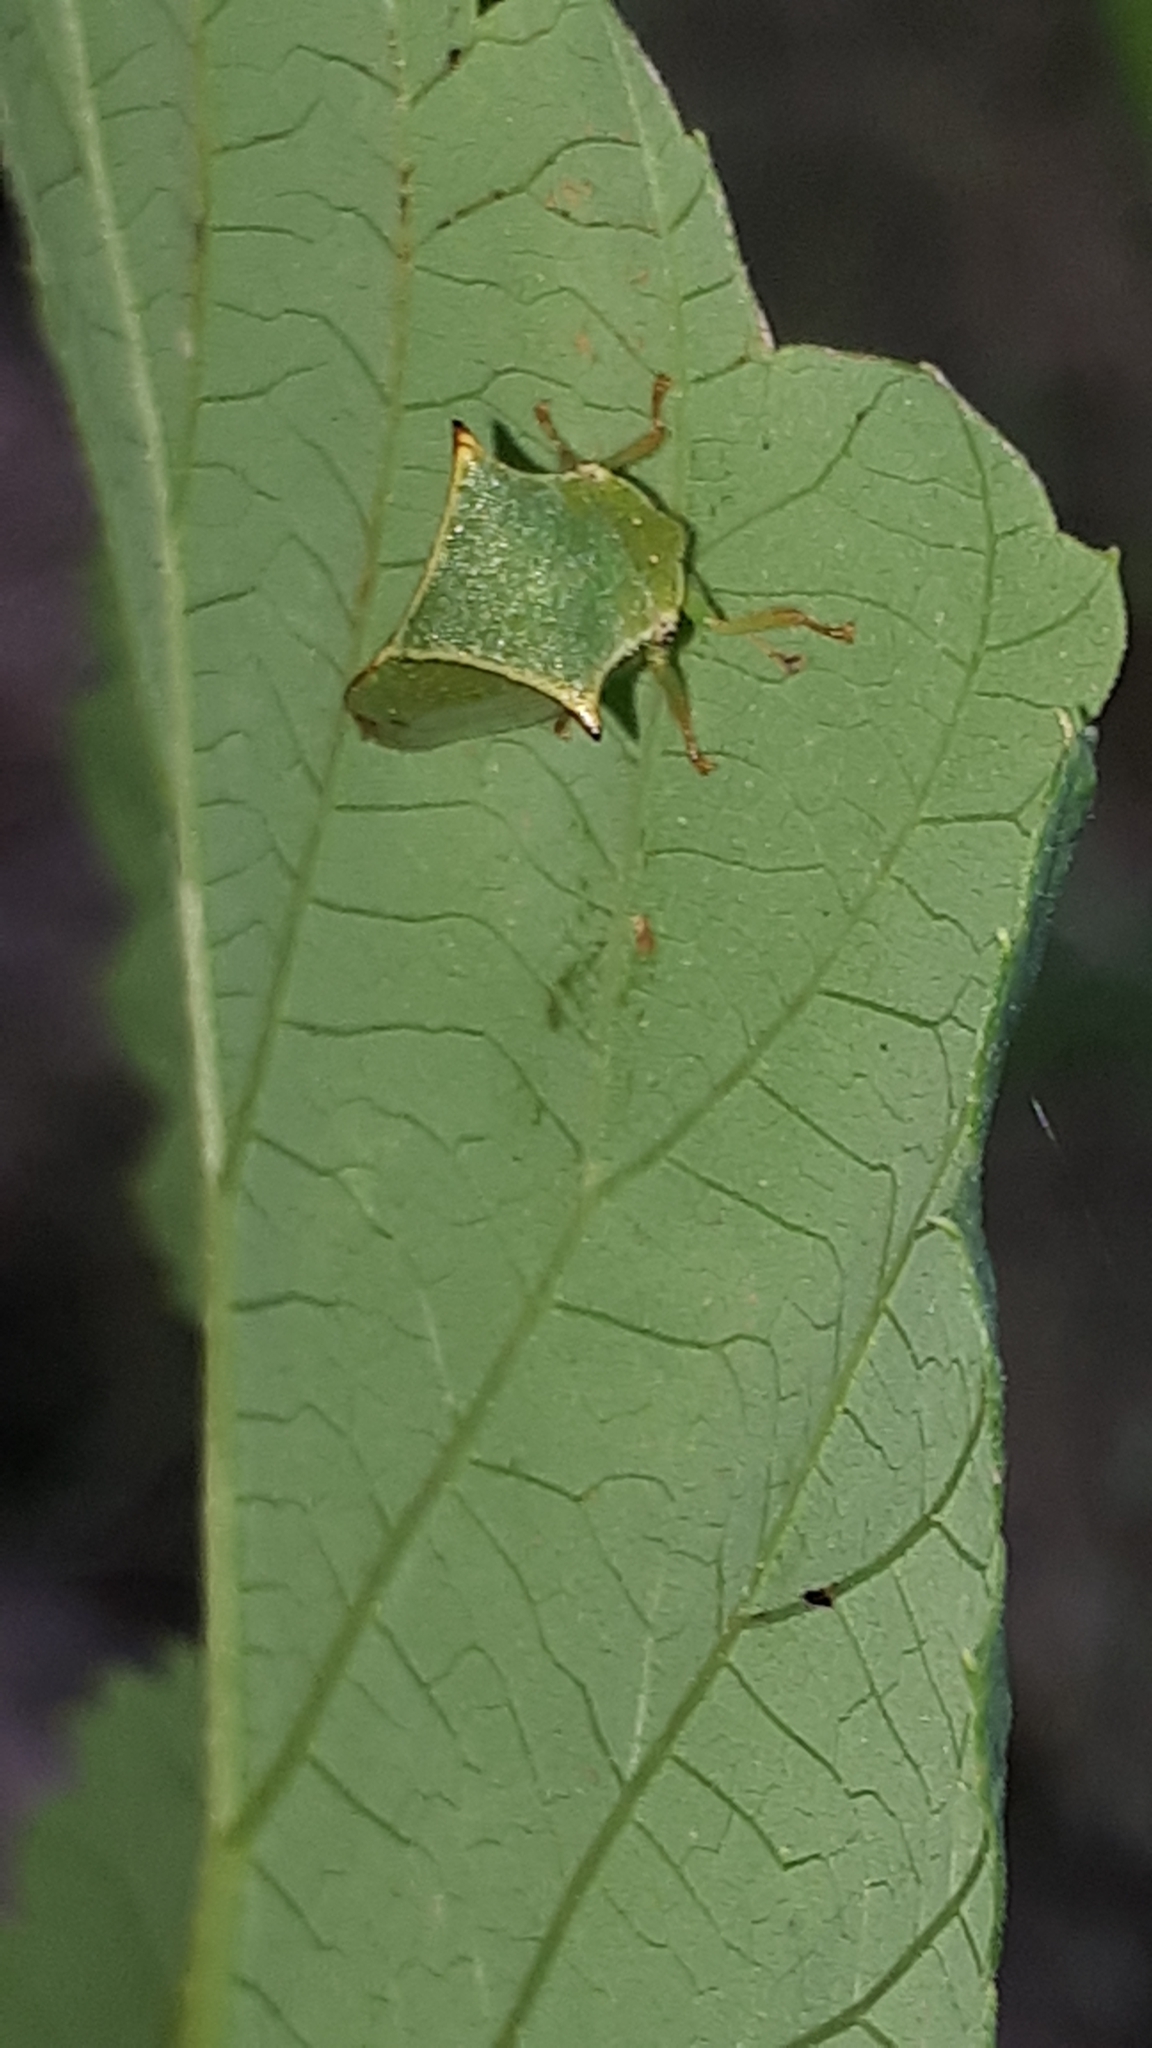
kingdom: Animalia
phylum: Arthropoda
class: Insecta
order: Hemiptera
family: Membracidae
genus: Stictocephala
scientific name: Stictocephala bisonia
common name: American buffalo treehopper
